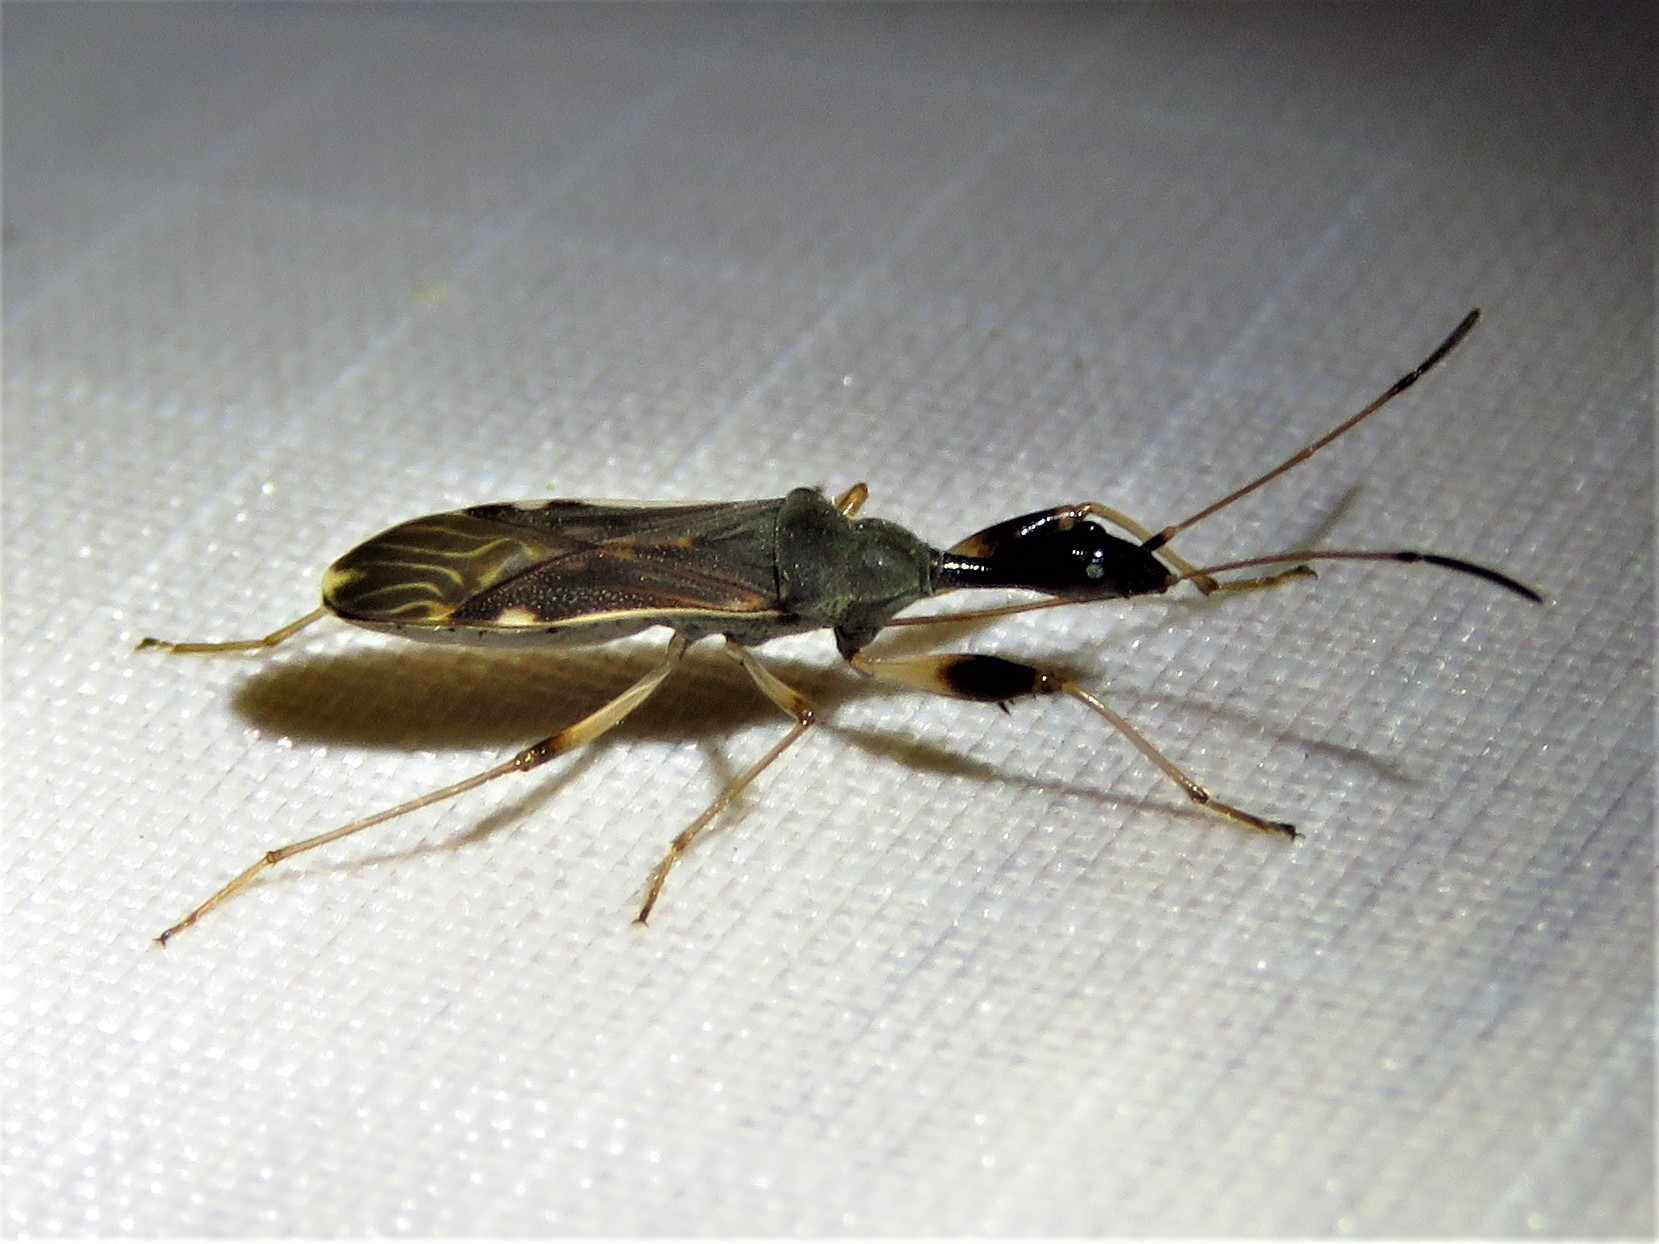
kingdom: Animalia
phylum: Arthropoda
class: Insecta
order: Hemiptera
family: Rhyparochromidae
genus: Myodocha
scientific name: Myodocha serripes
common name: Long-necked seed bug
